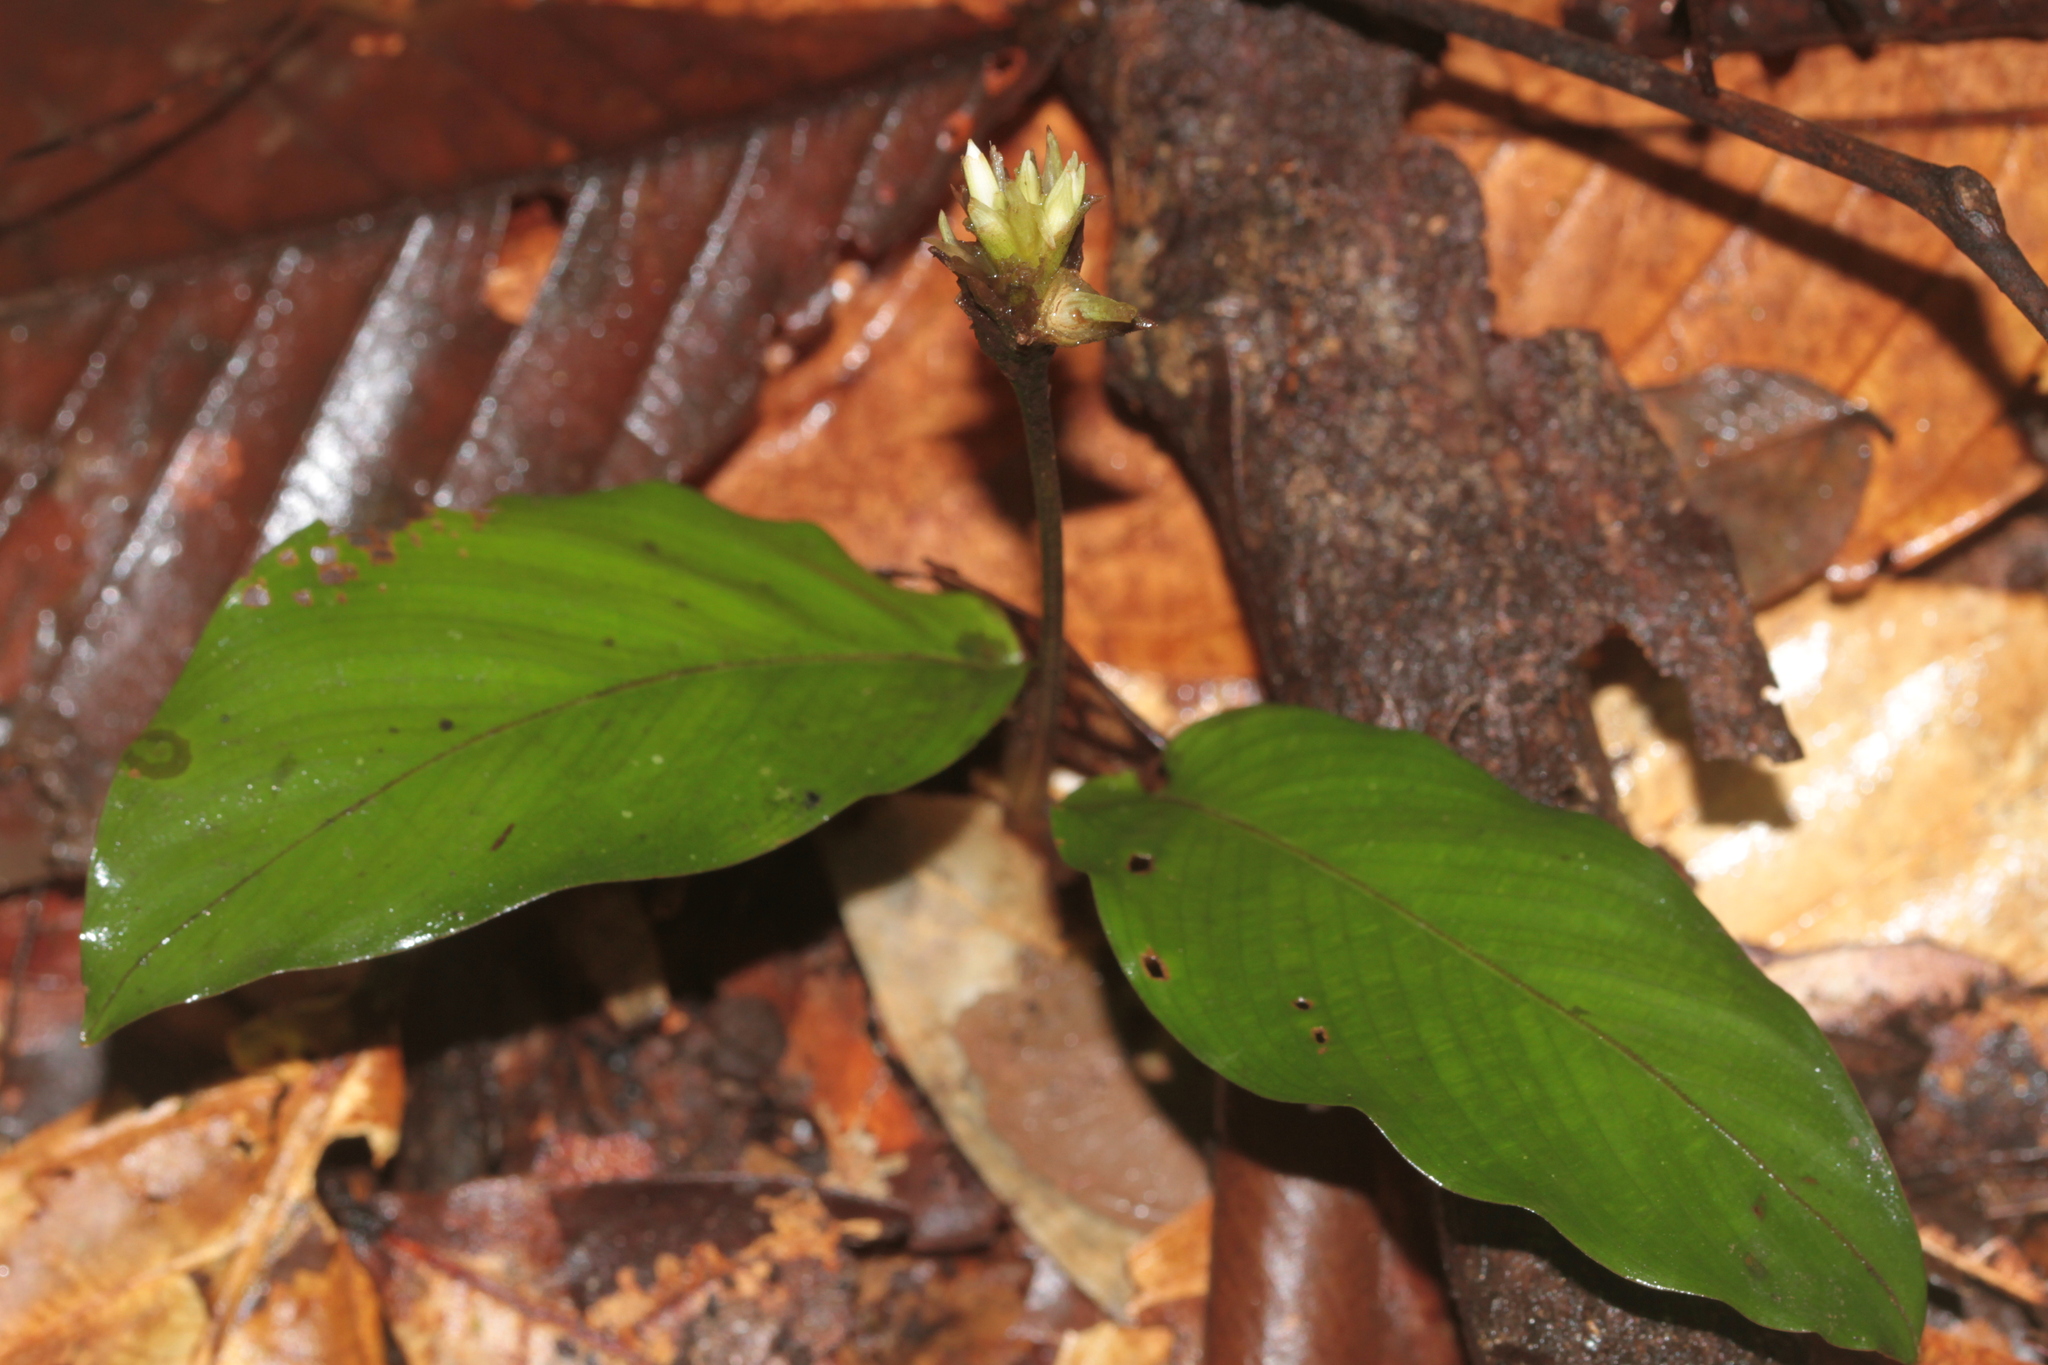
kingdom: Plantae
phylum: Tracheophyta
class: Liliopsida
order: Zingiberales
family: Marantaceae
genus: Goeppertia
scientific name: Goeppertia micans
